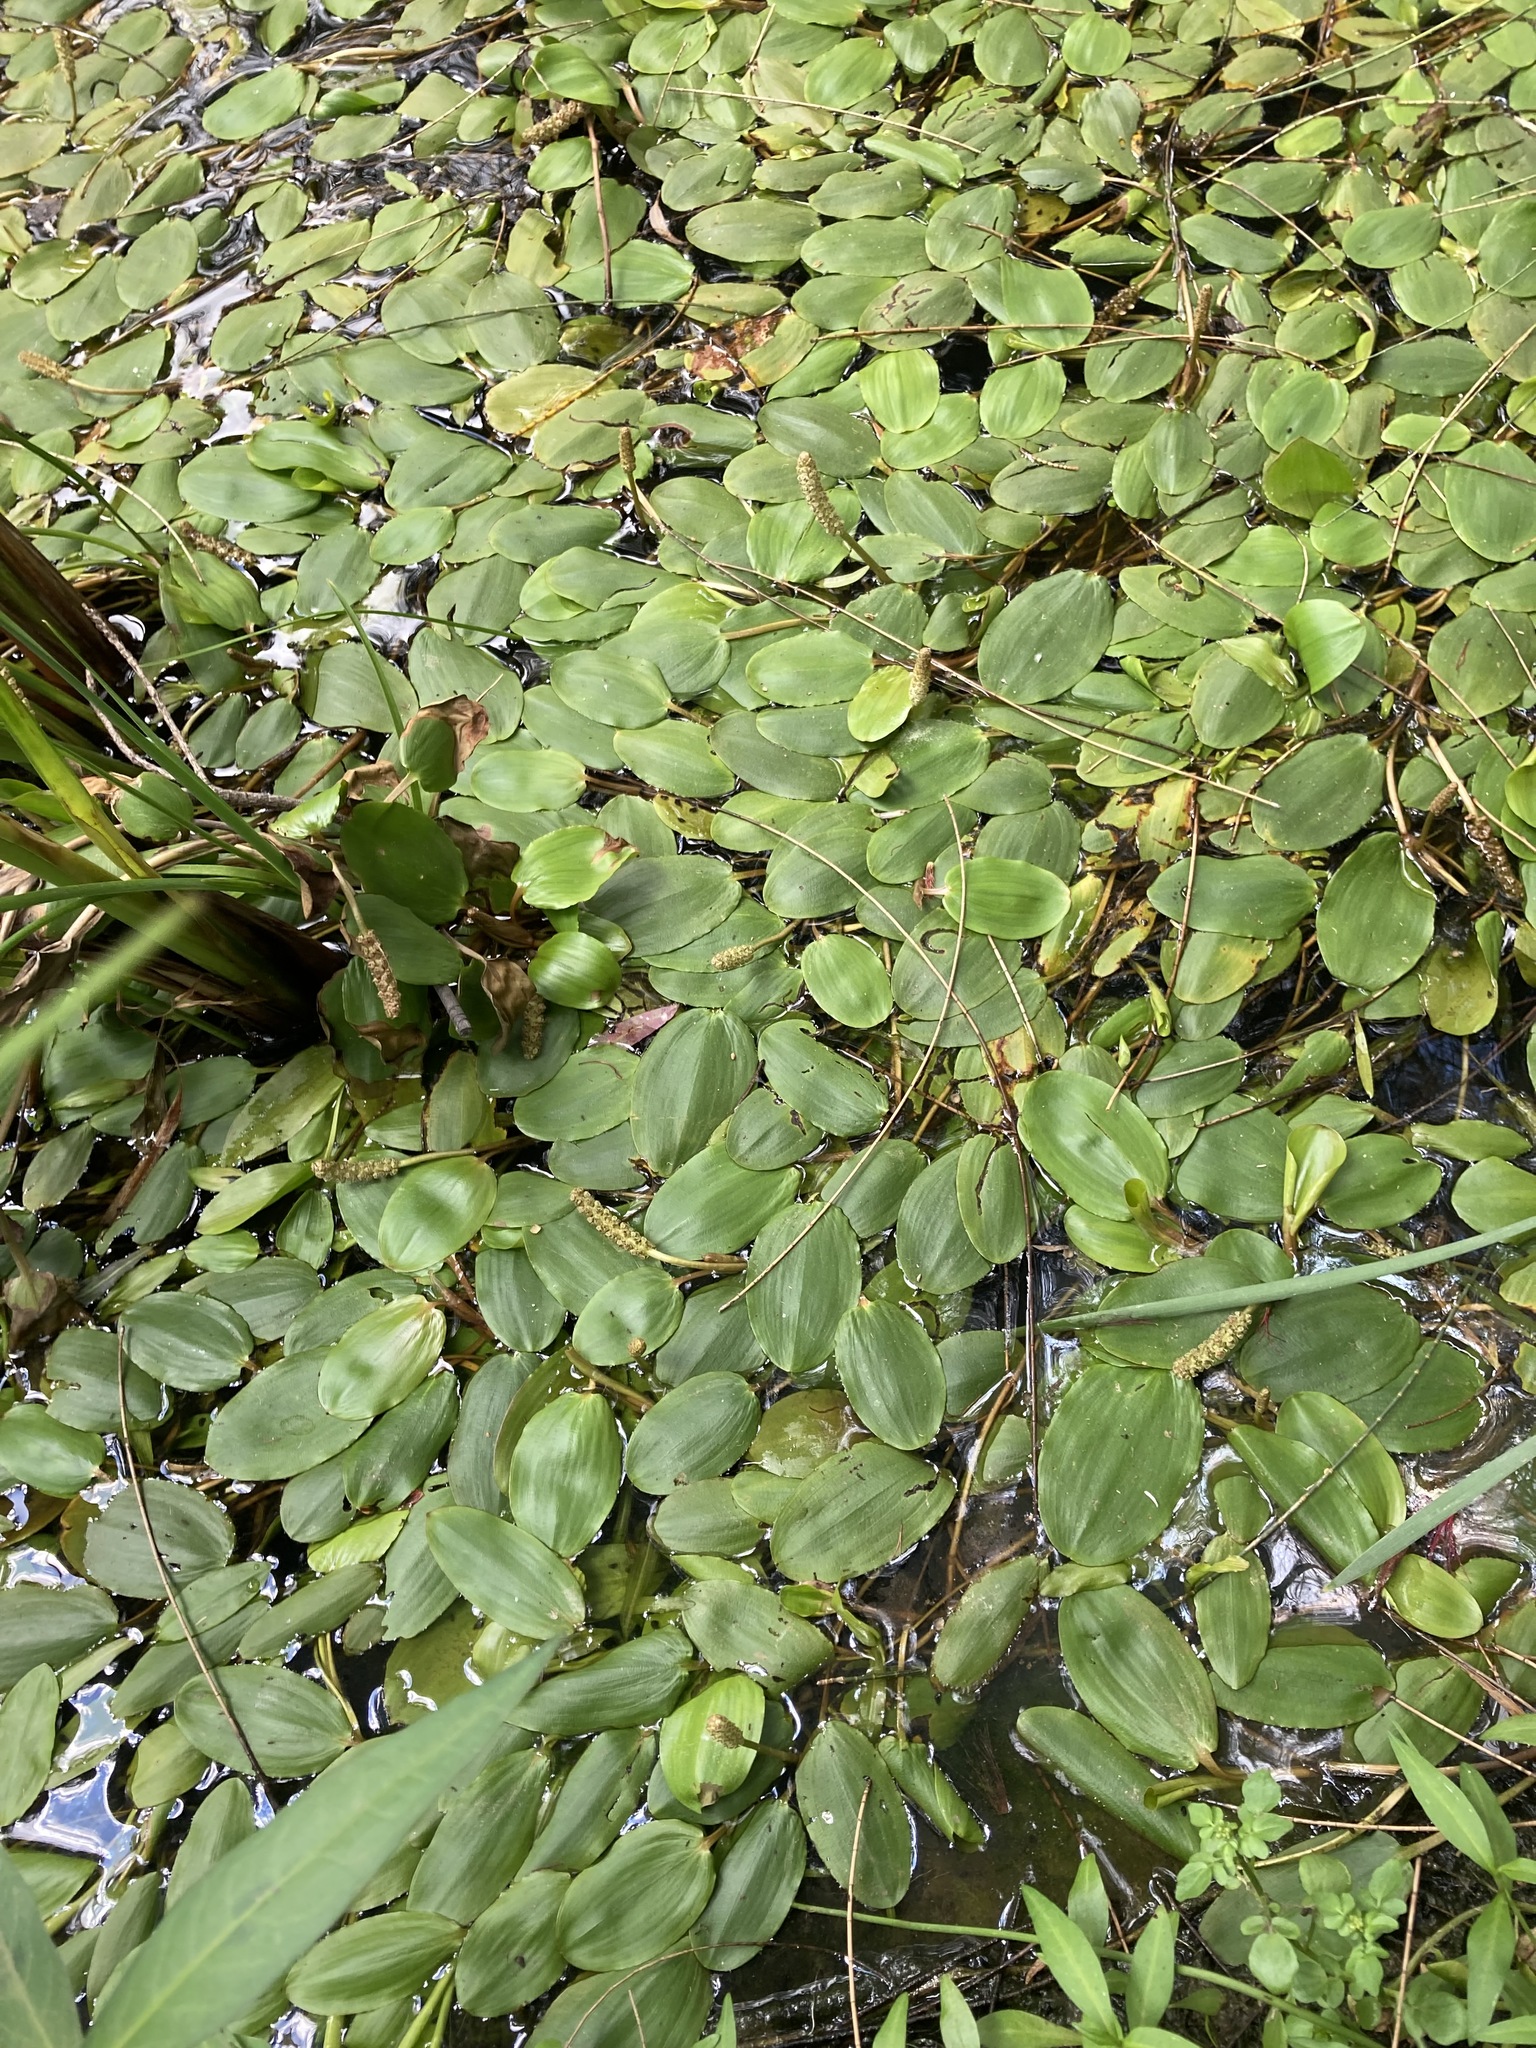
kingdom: Plantae
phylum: Tracheophyta
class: Liliopsida
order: Alismatales
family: Potamogetonaceae
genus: Potamogeton
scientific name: Potamogeton natans
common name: Broad-leaved pondweed
